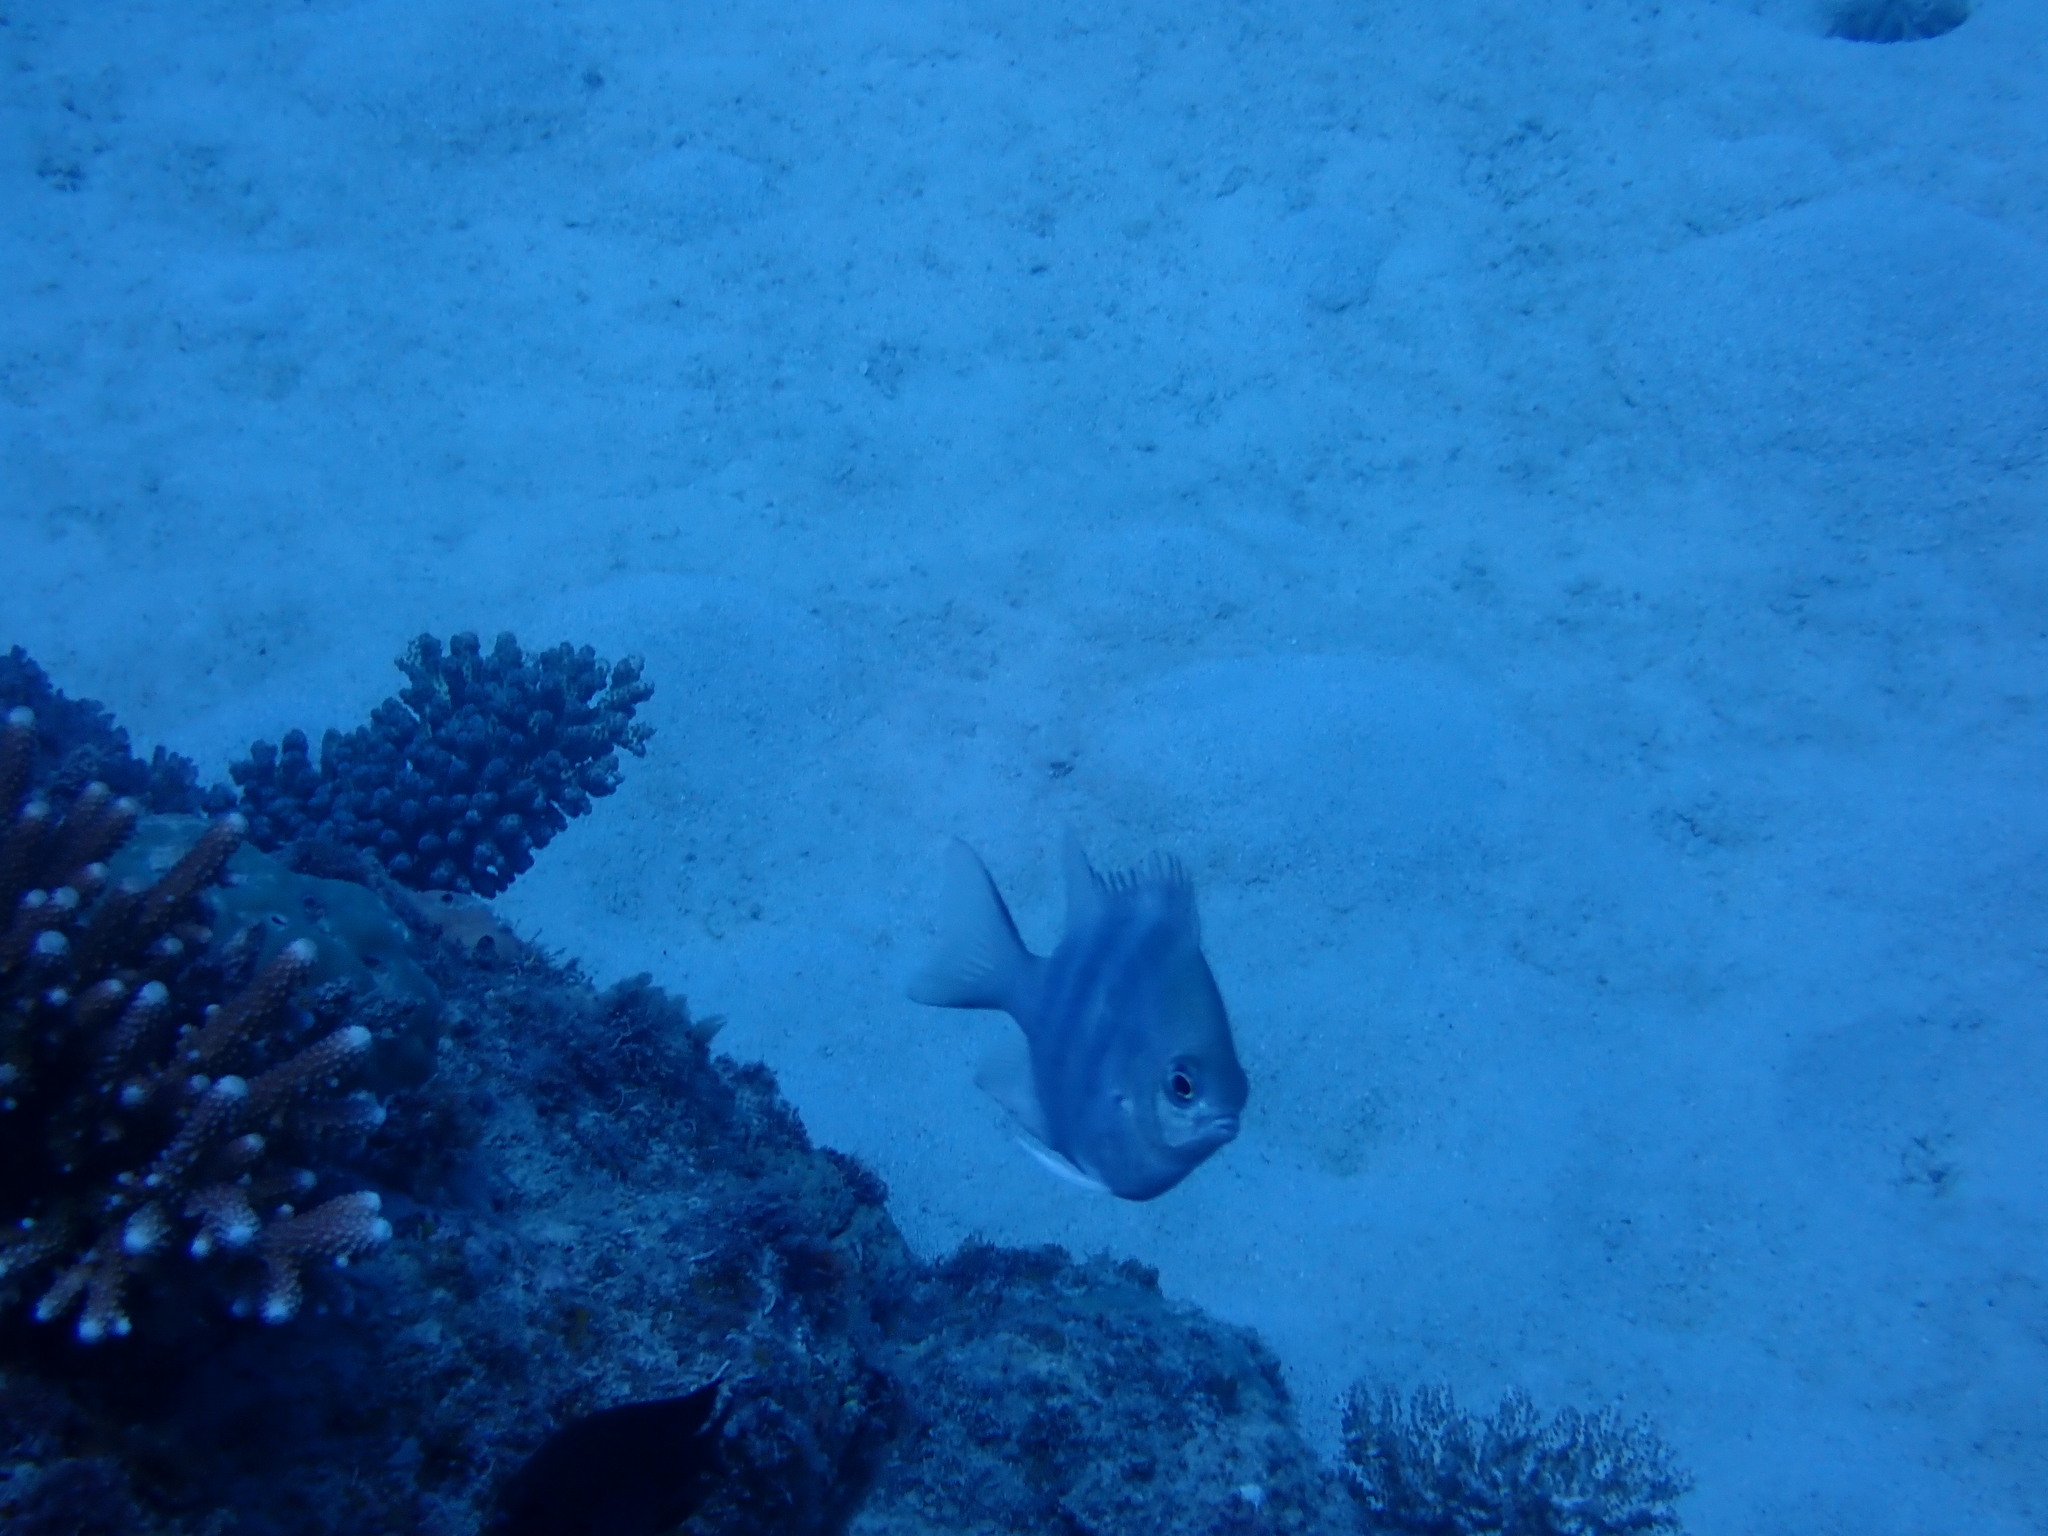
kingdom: Animalia
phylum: Chordata
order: Perciformes
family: Pomacentridae
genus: Amblyglyphidodon
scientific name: Amblyglyphidodon curacao
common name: Staghorn damsel
